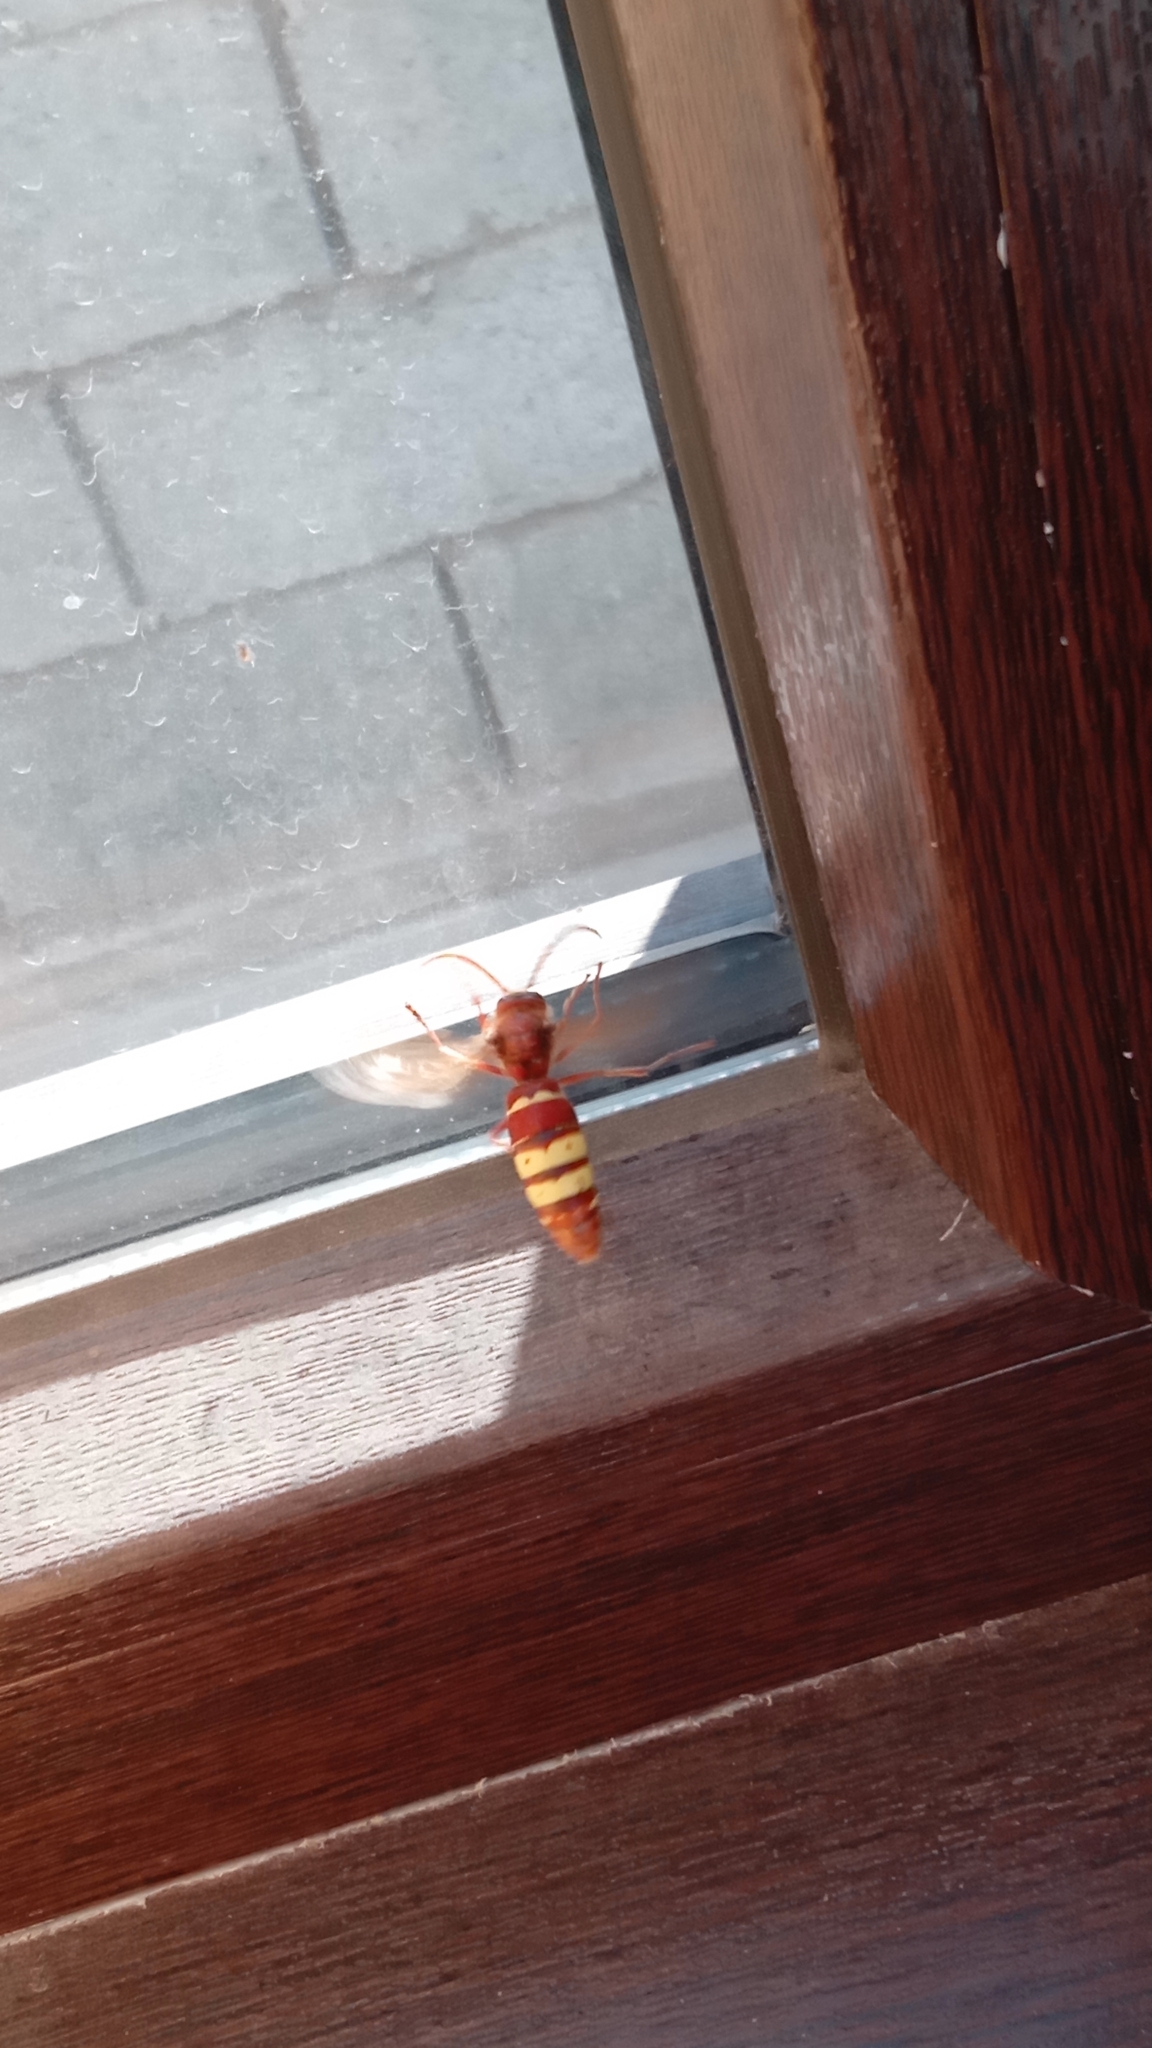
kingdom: Animalia
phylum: Arthropoda
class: Insecta
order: Hymenoptera
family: Vespidae
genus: Vespa
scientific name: Vespa orientalis
